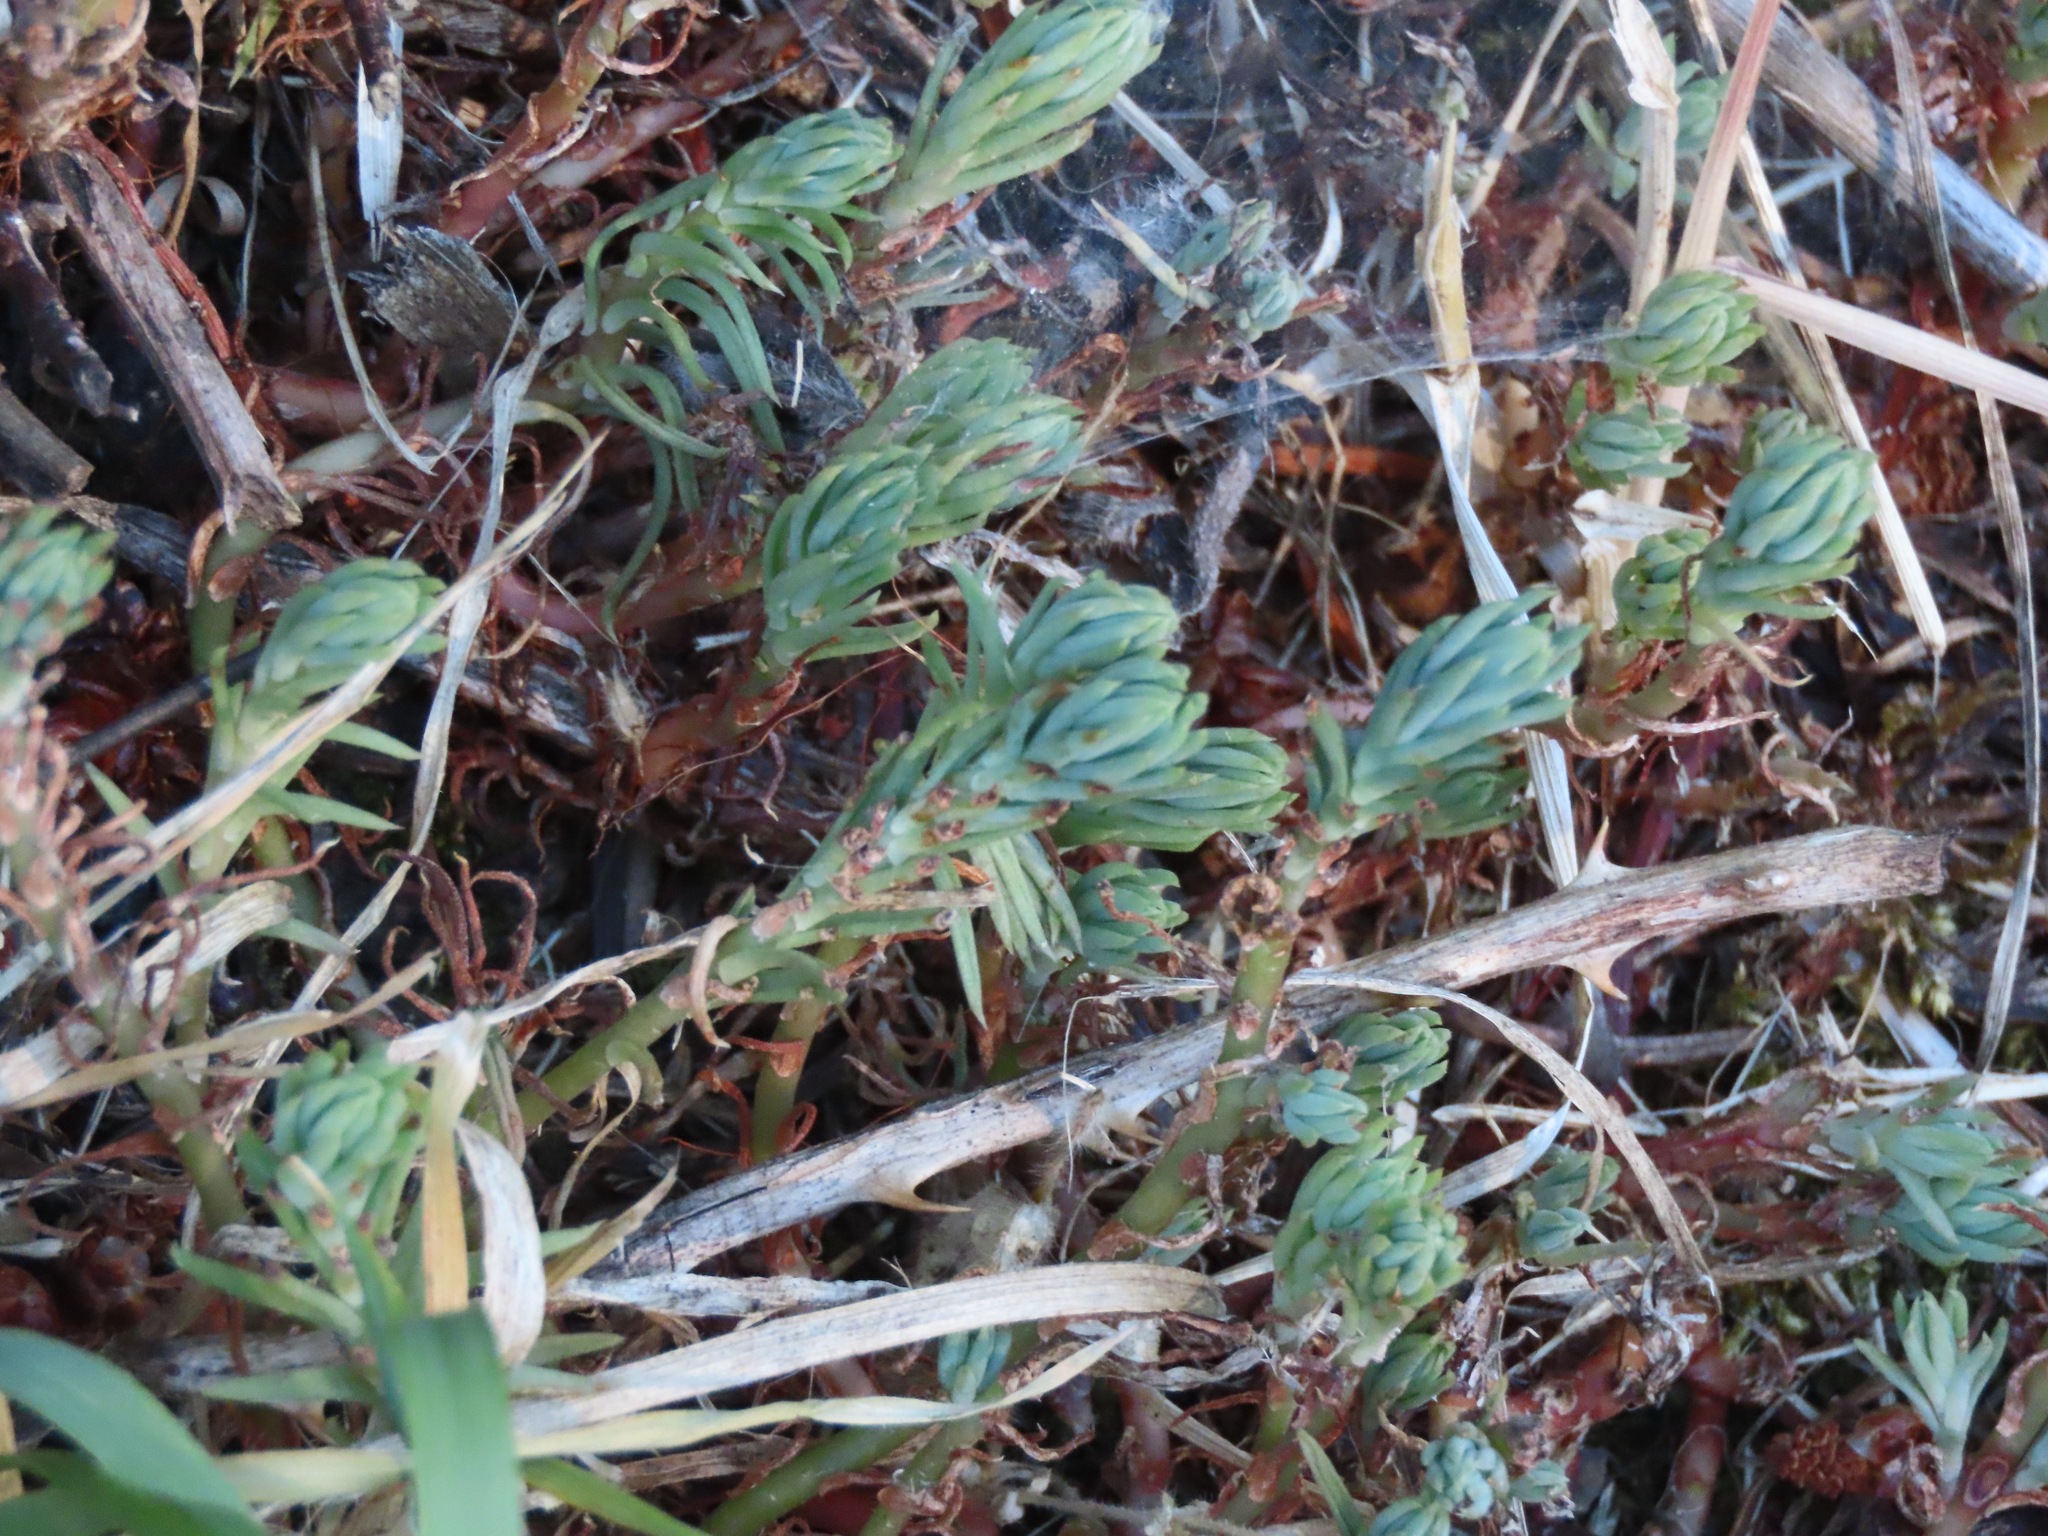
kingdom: Plantae
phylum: Tracheophyta
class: Magnoliopsida
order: Saxifragales
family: Crassulaceae
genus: Petrosedum
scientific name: Petrosedum forsterianum
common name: Forster's stonecrop
